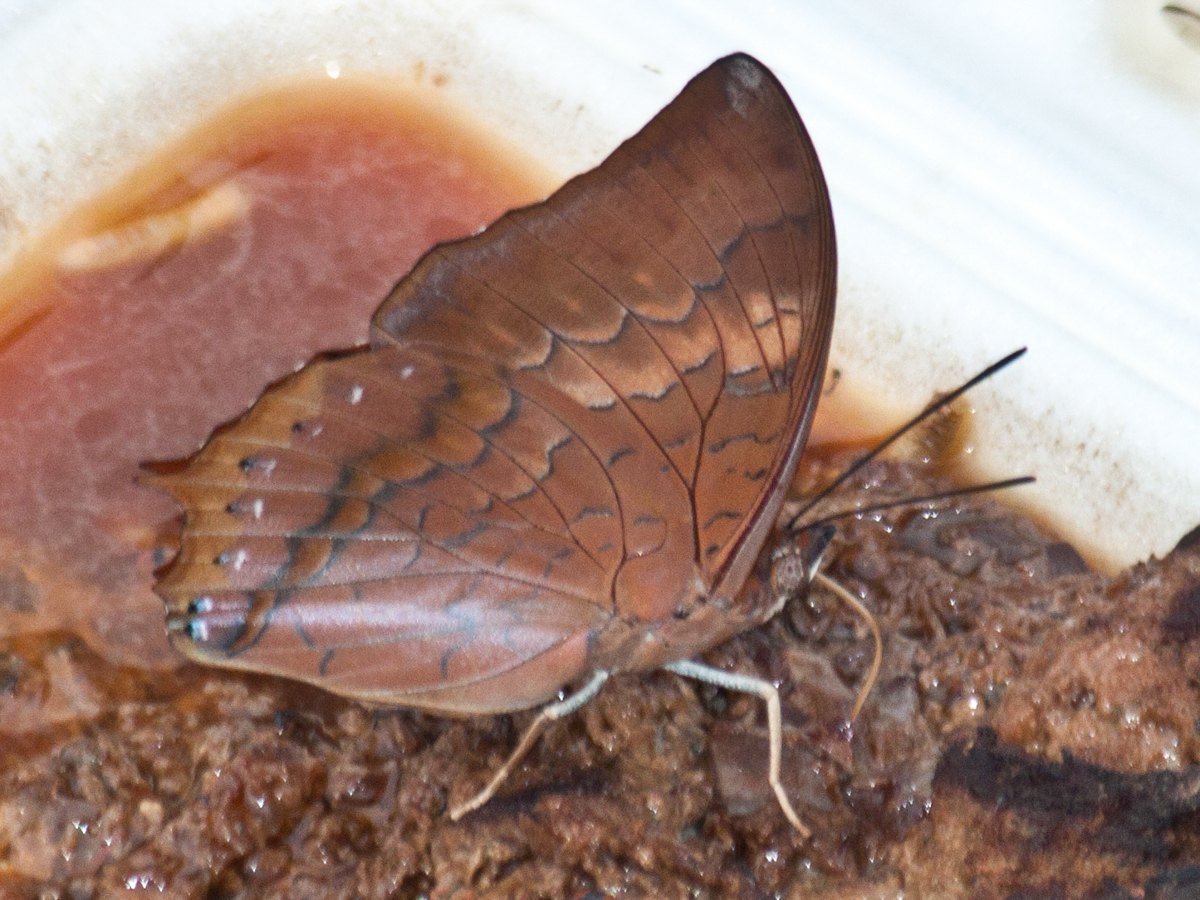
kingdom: Animalia
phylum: Arthropoda
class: Insecta
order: Lepidoptera
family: Nymphalidae
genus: Charaxes
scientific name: Charaxes bernardus
